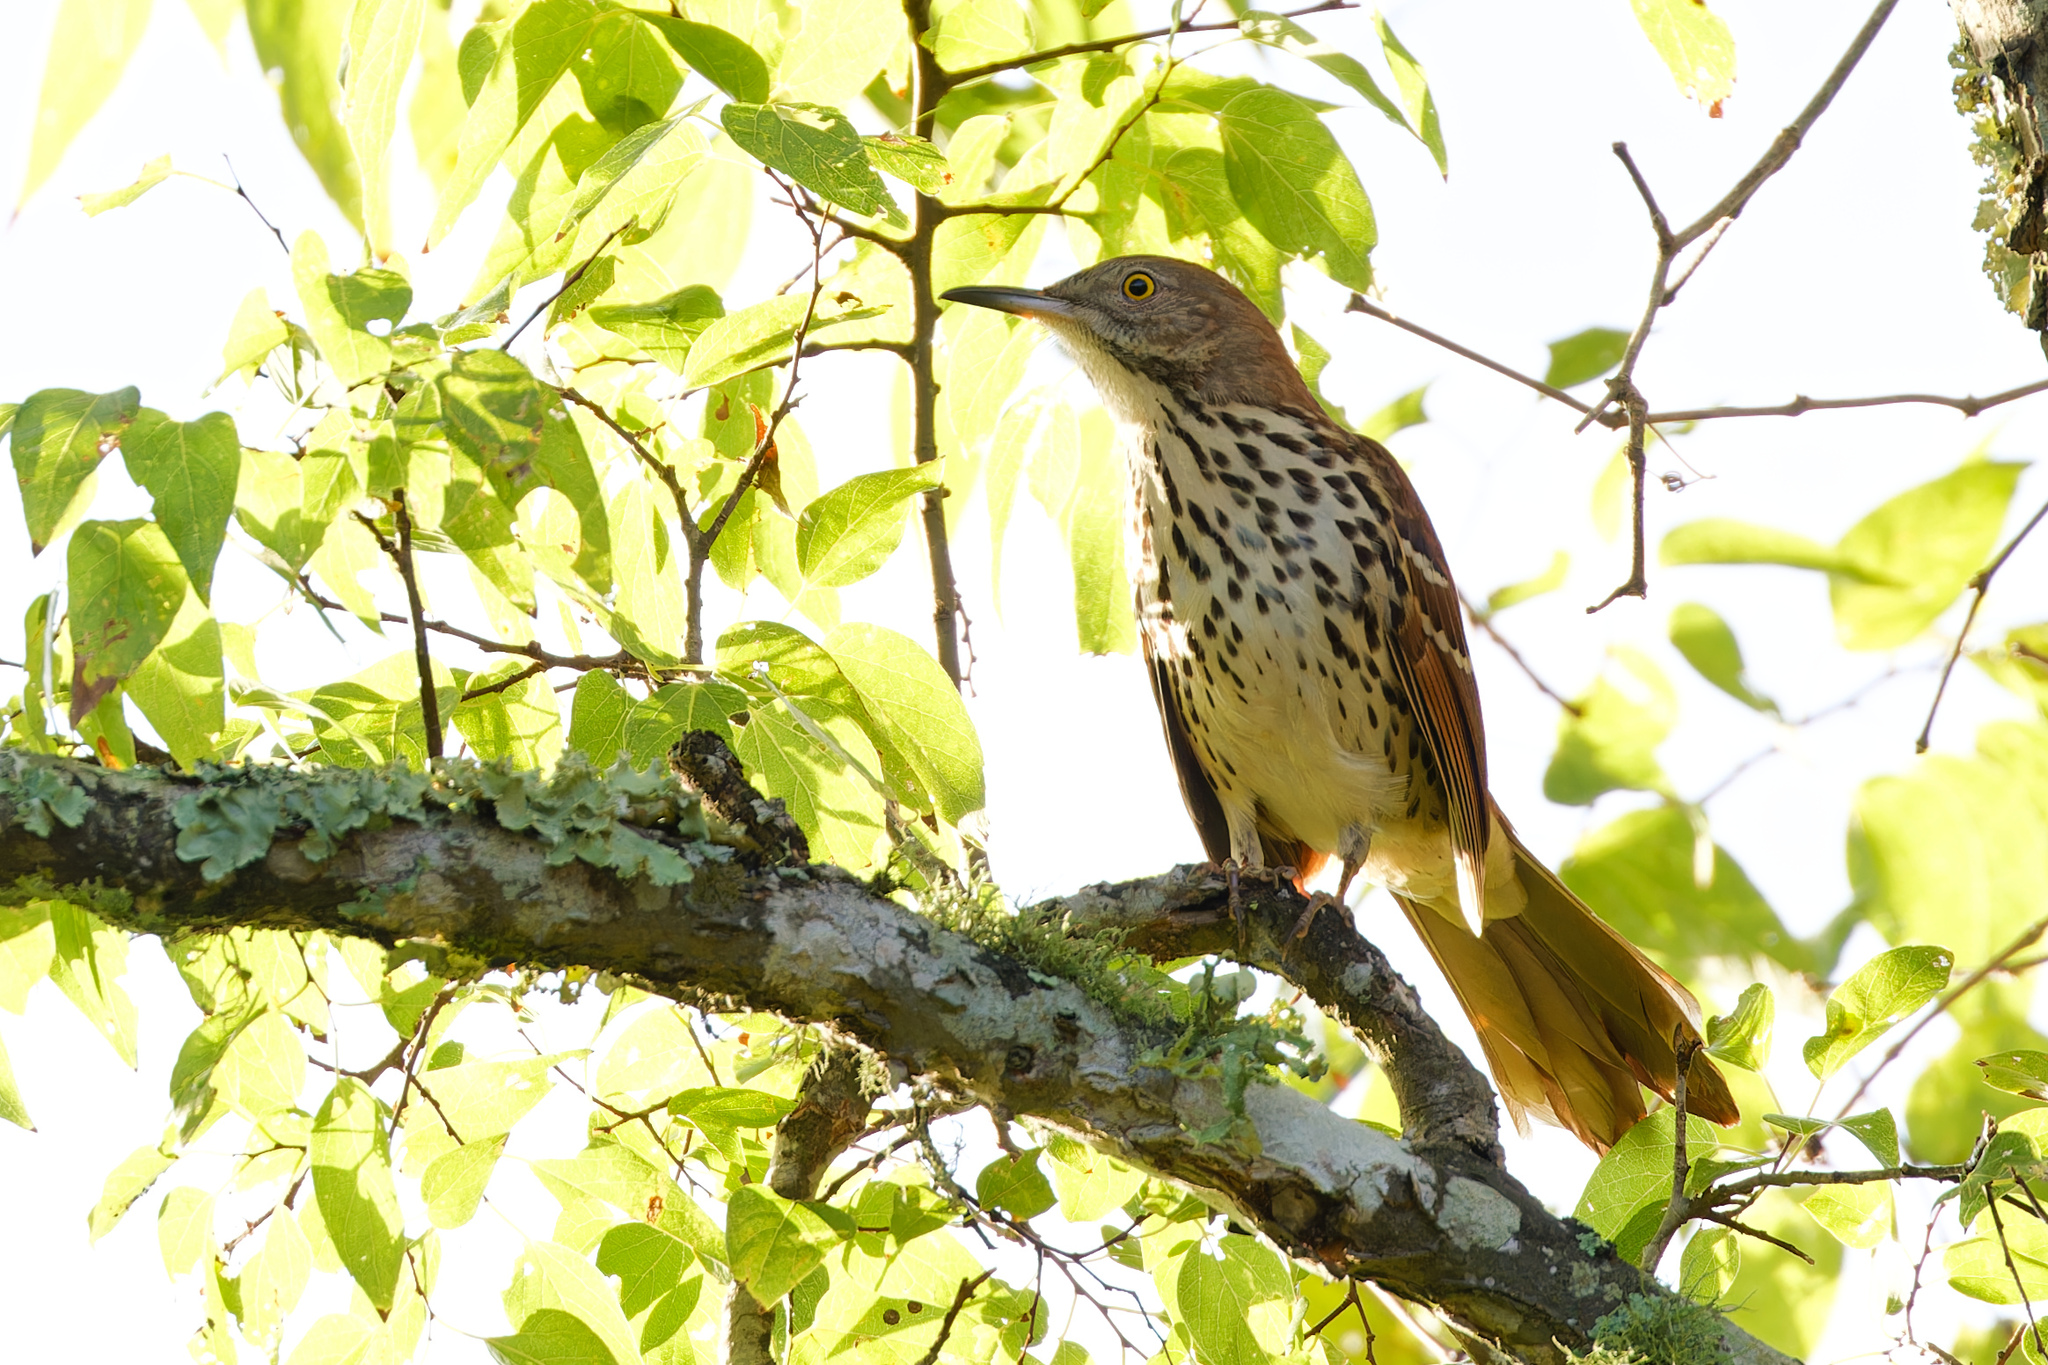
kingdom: Animalia
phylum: Chordata
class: Aves
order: Passeriformes
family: Mimidae
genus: Toxostoma
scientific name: Toxostoma rufum
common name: Brown thrasher
